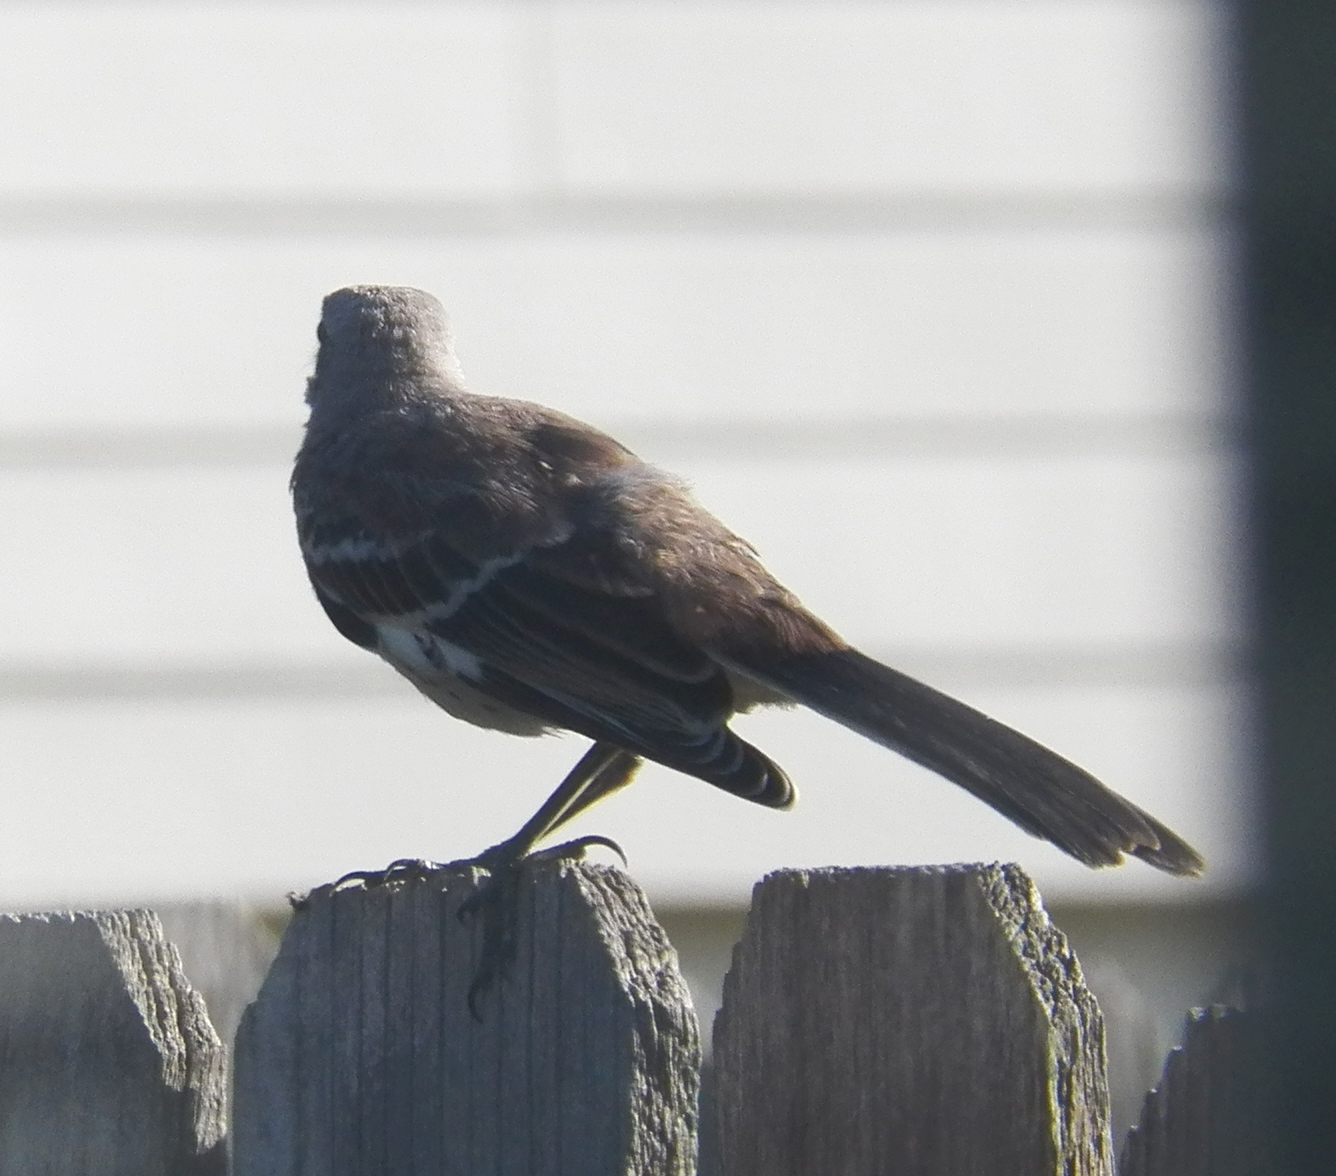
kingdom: Animalia
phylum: Chordata
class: Aves
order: Passeriformes
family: Mimidae
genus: Mimus
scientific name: Mimus polyglottos
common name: Northern mockingbird
